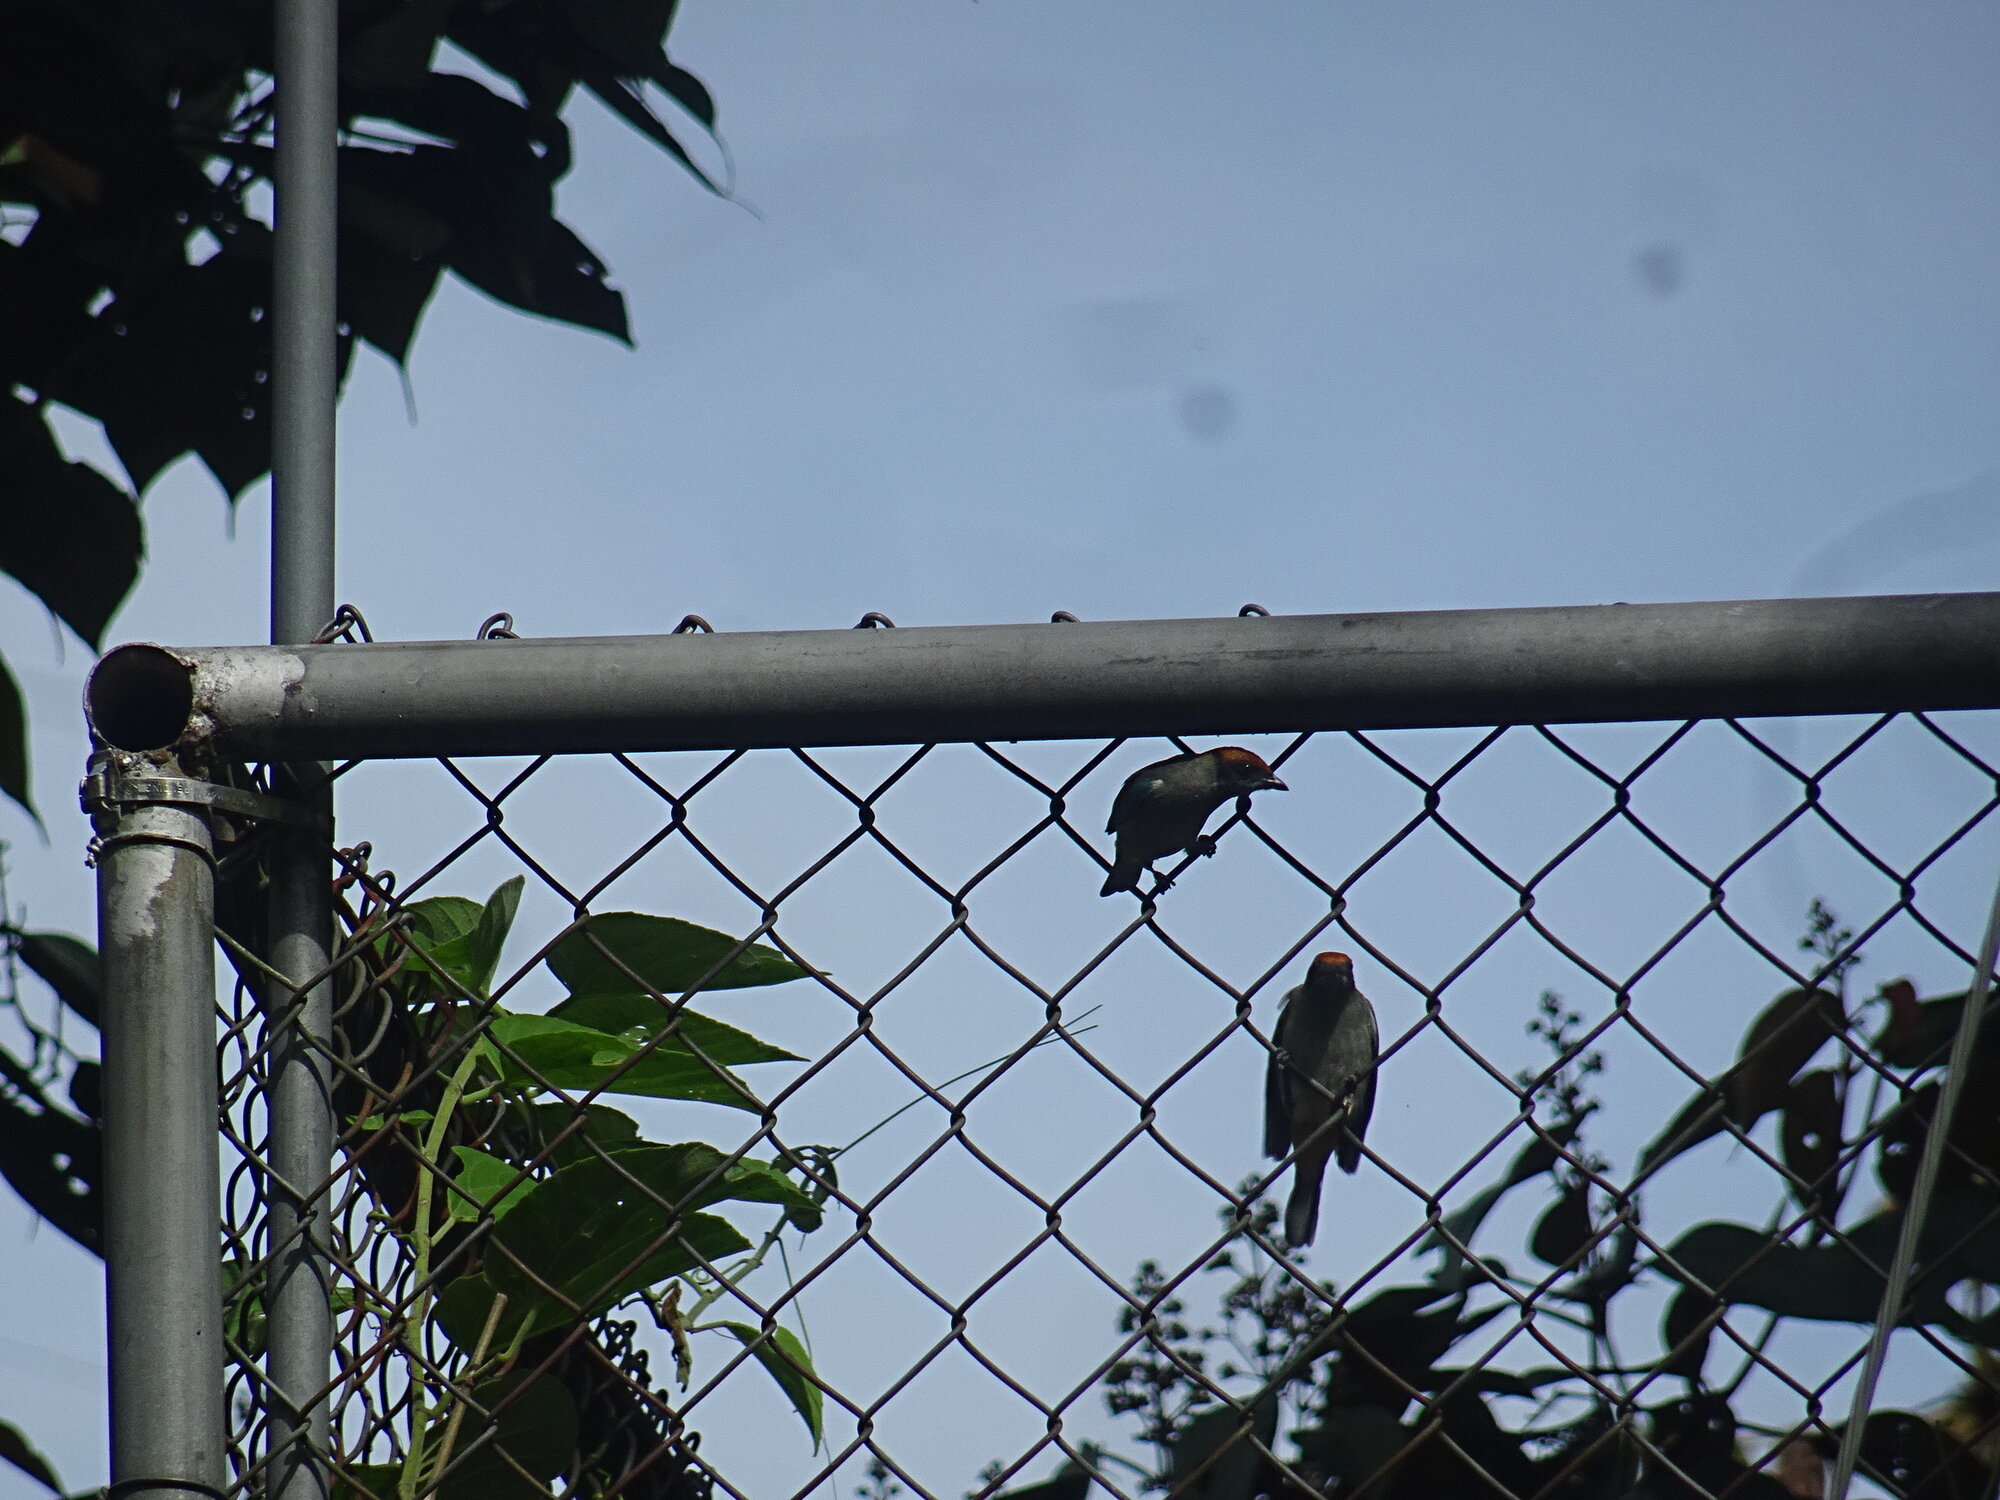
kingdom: Animalia
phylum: Chordata
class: Aves
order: Passeriformes
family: Thraupidae
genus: Stilpnia
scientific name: Stilpnia vitriolina
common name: Scrub tanager
